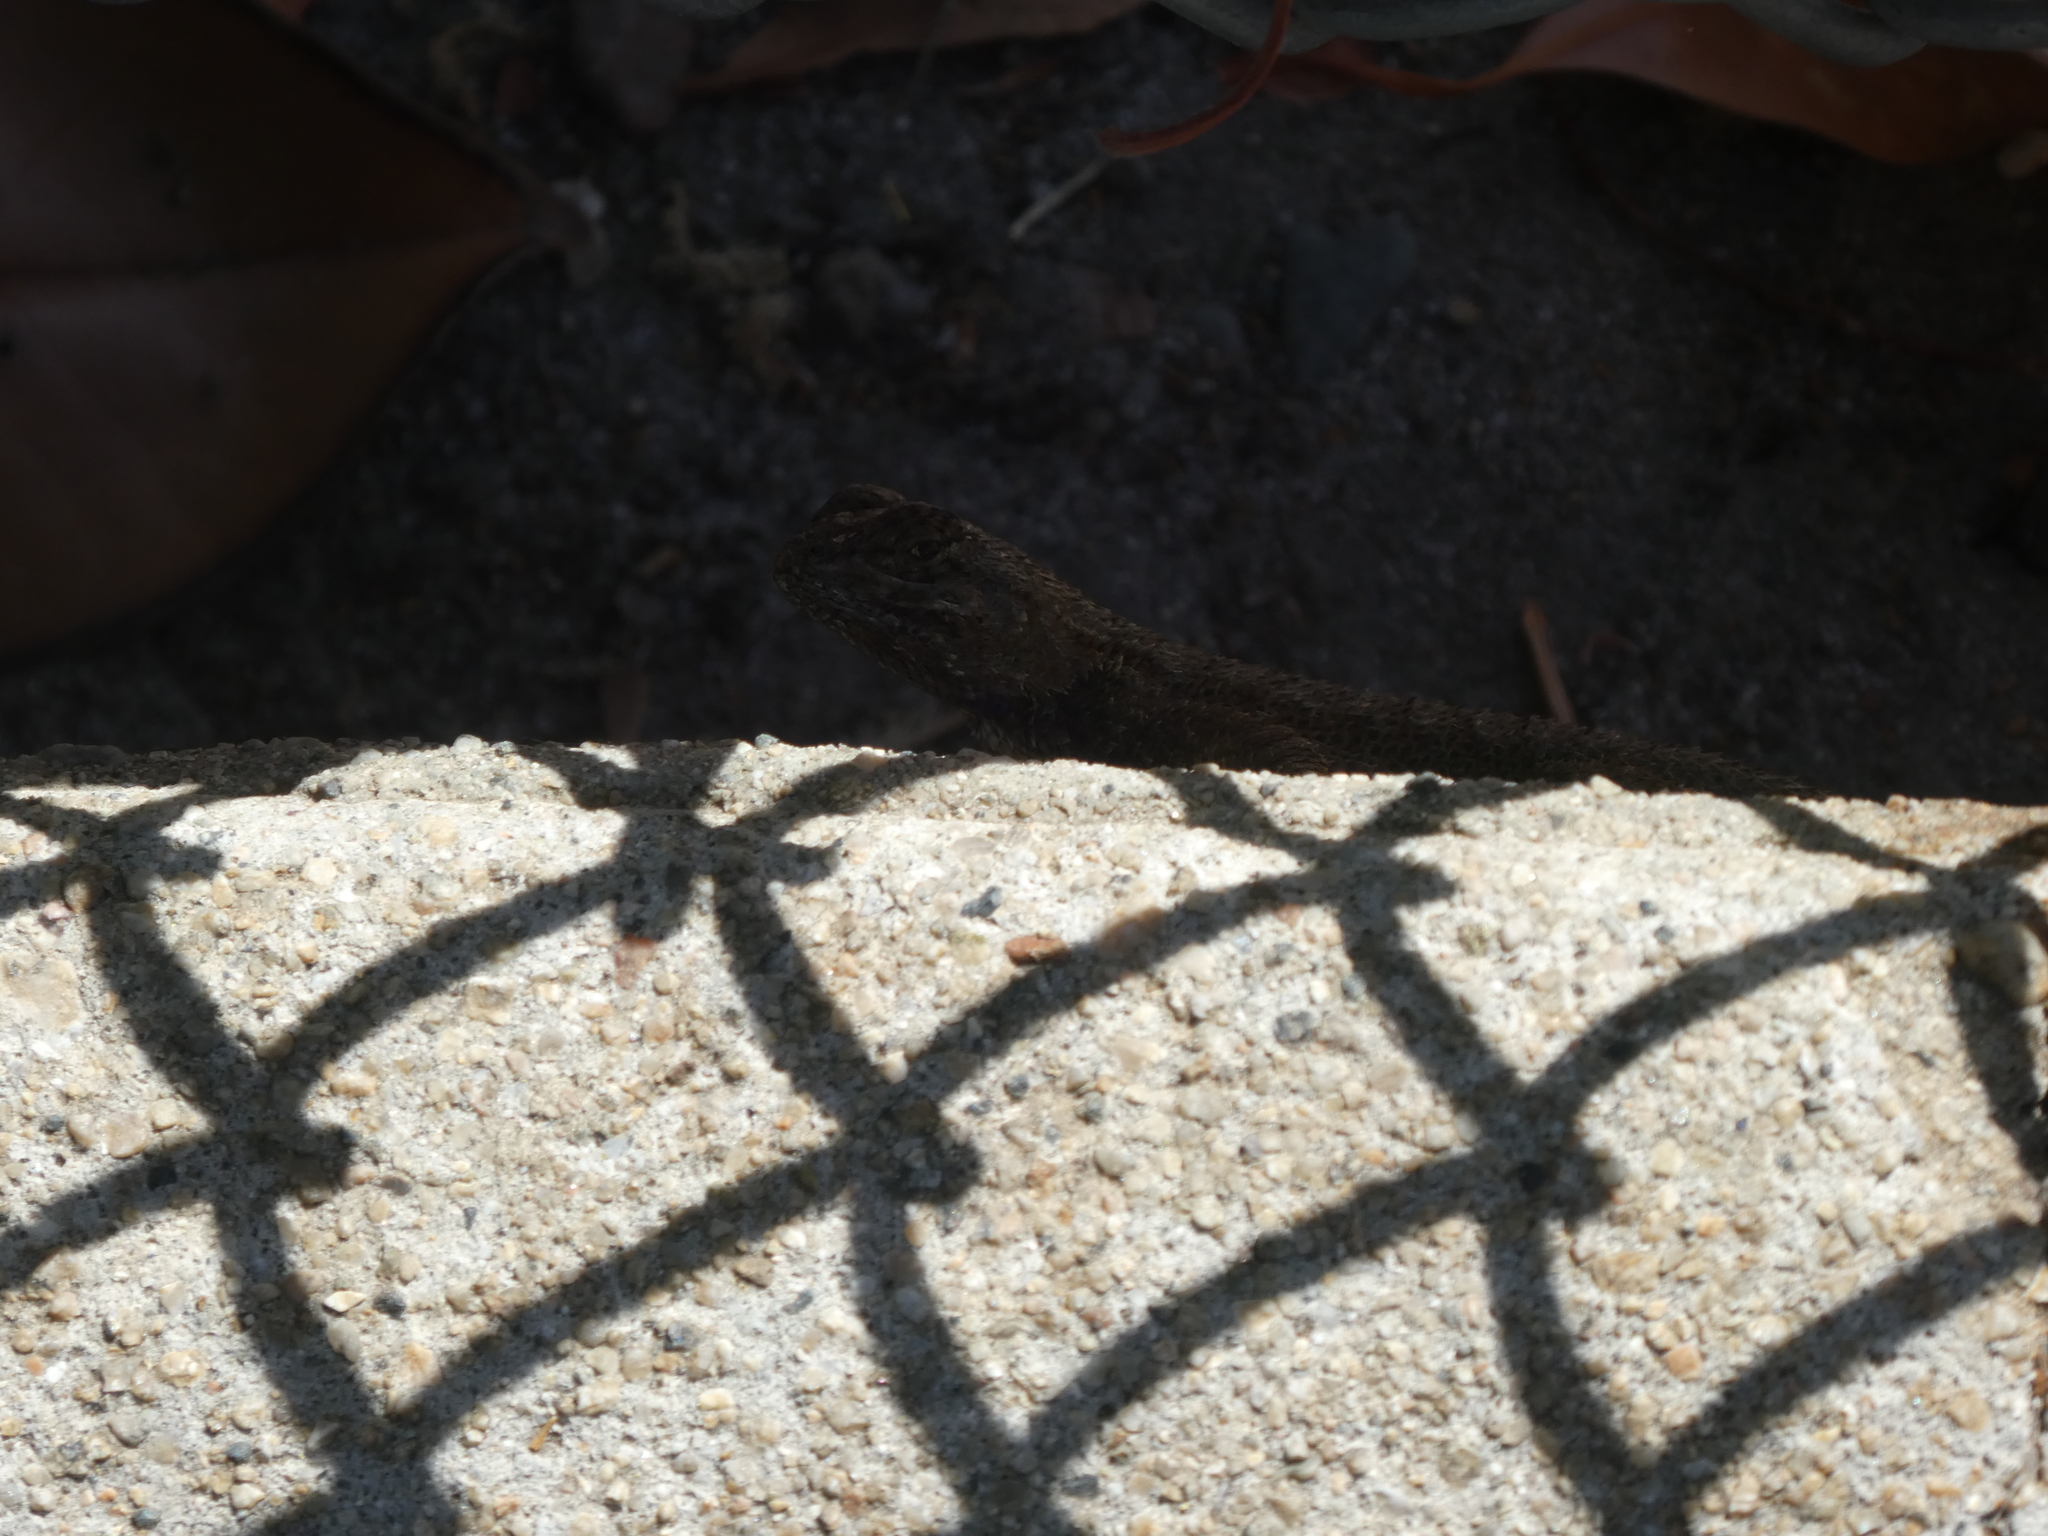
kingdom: Animalia
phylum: Chordata
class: Squamata
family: Phrynosomatidae
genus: Sceloporus
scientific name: Sceloporus occidentalis
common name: Western fence lizard
